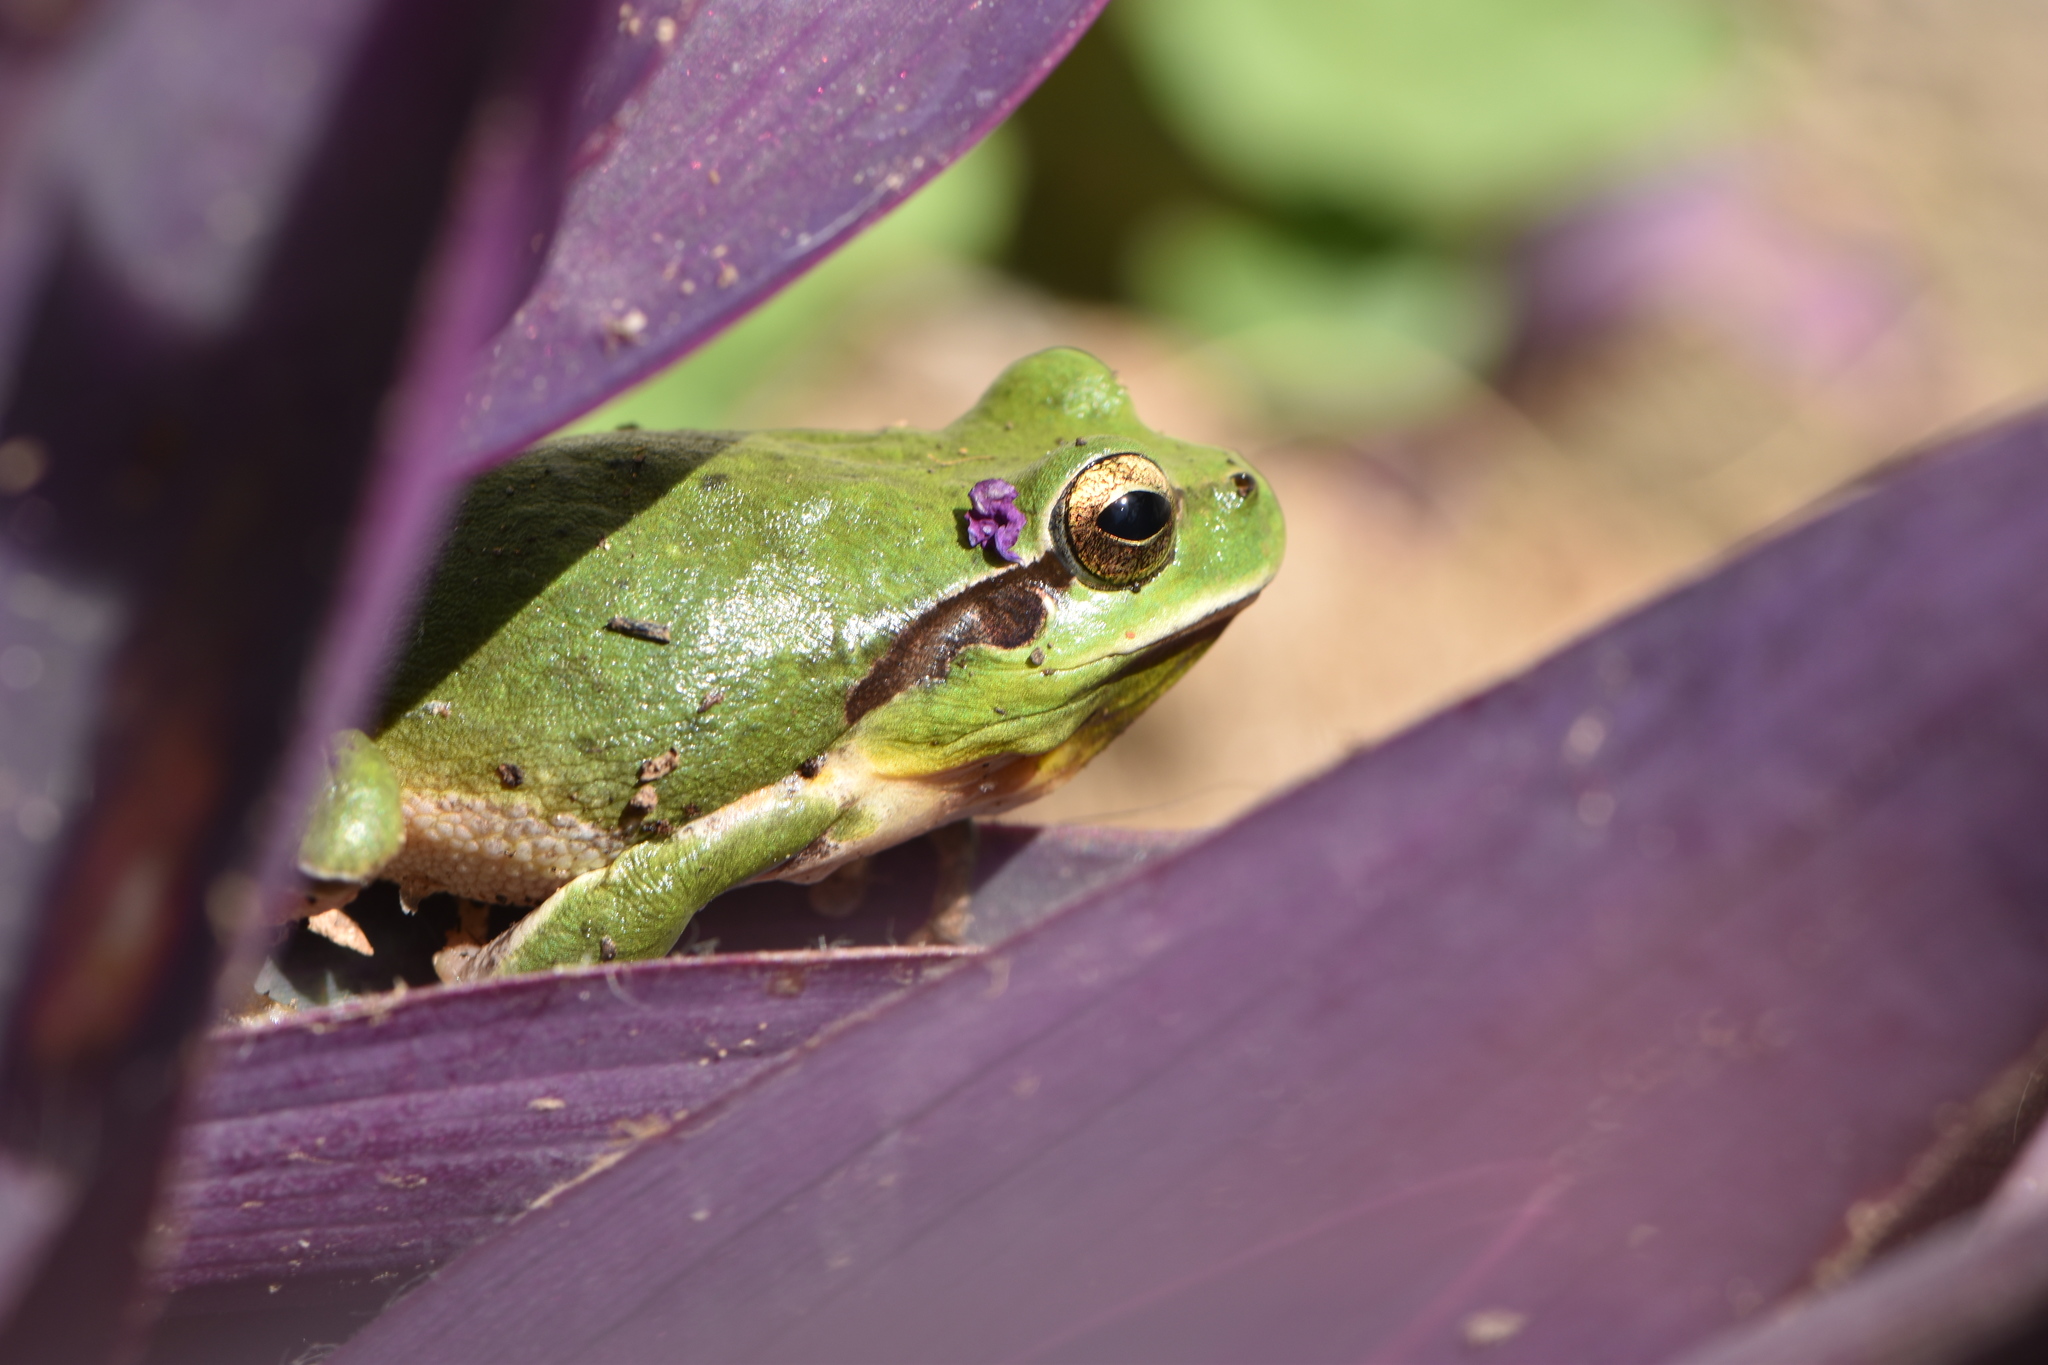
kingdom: Animalia
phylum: Chordata
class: Amphibia
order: Anura
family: Hylidae
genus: Hyla
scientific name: Hyla meridionalis
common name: Stripeless tree frog
